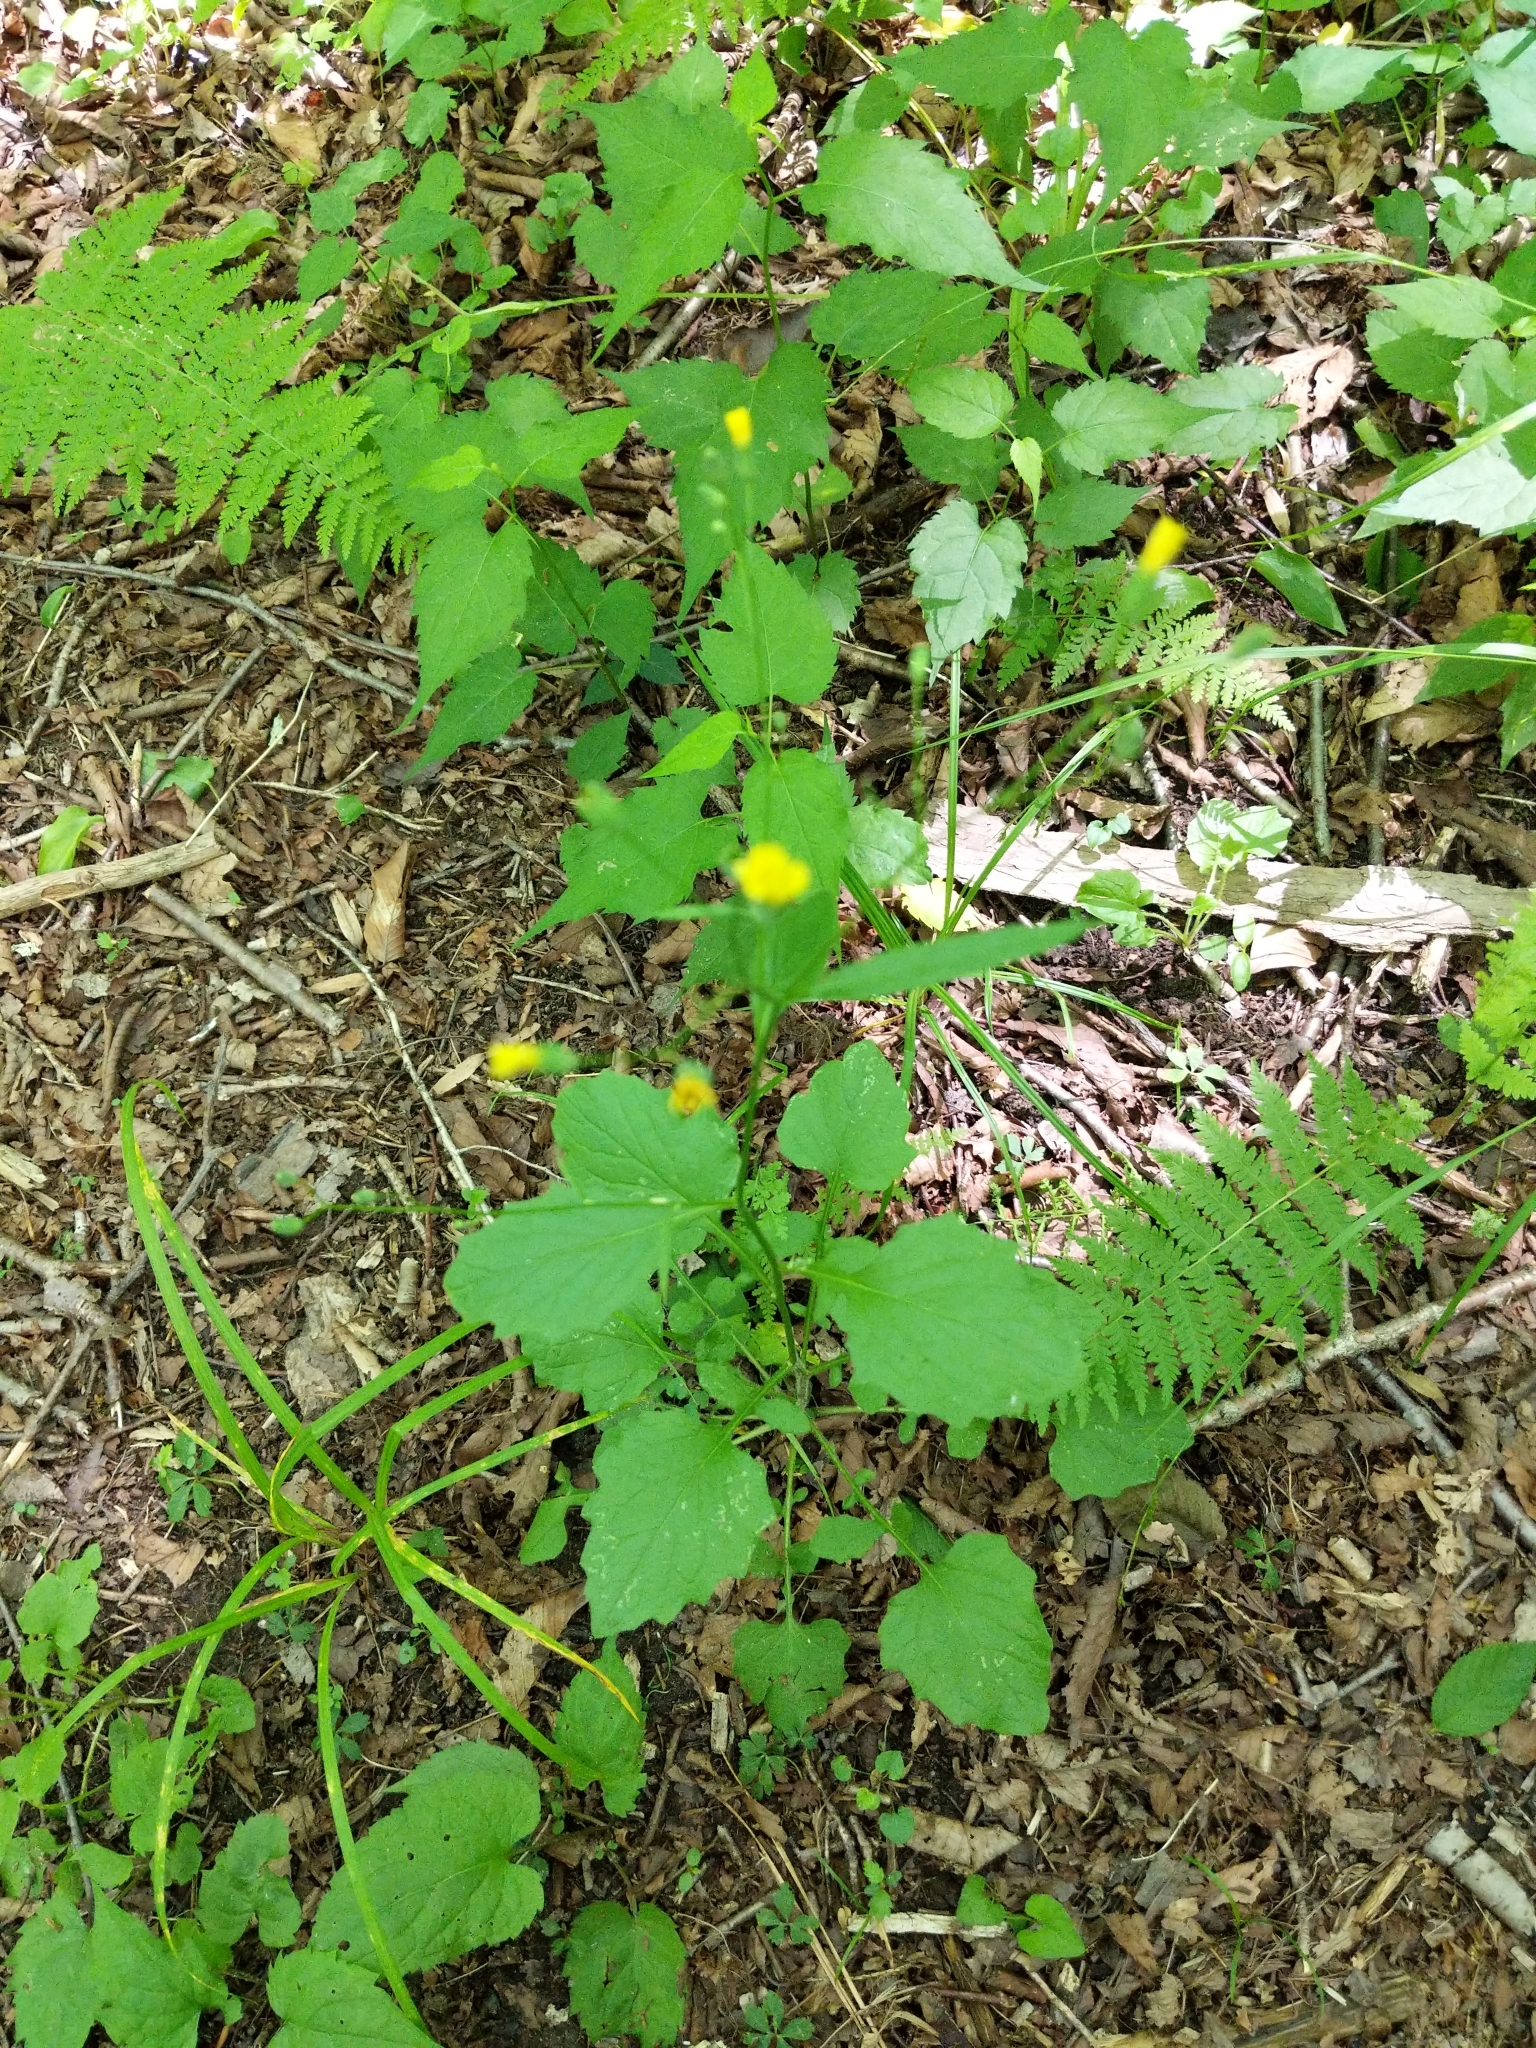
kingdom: Plantae
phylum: Tracheophyta
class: Magnoliopsida
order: Asterales
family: Asteraceae
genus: Lapsana
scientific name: Lapsana communis
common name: Nipplewort
